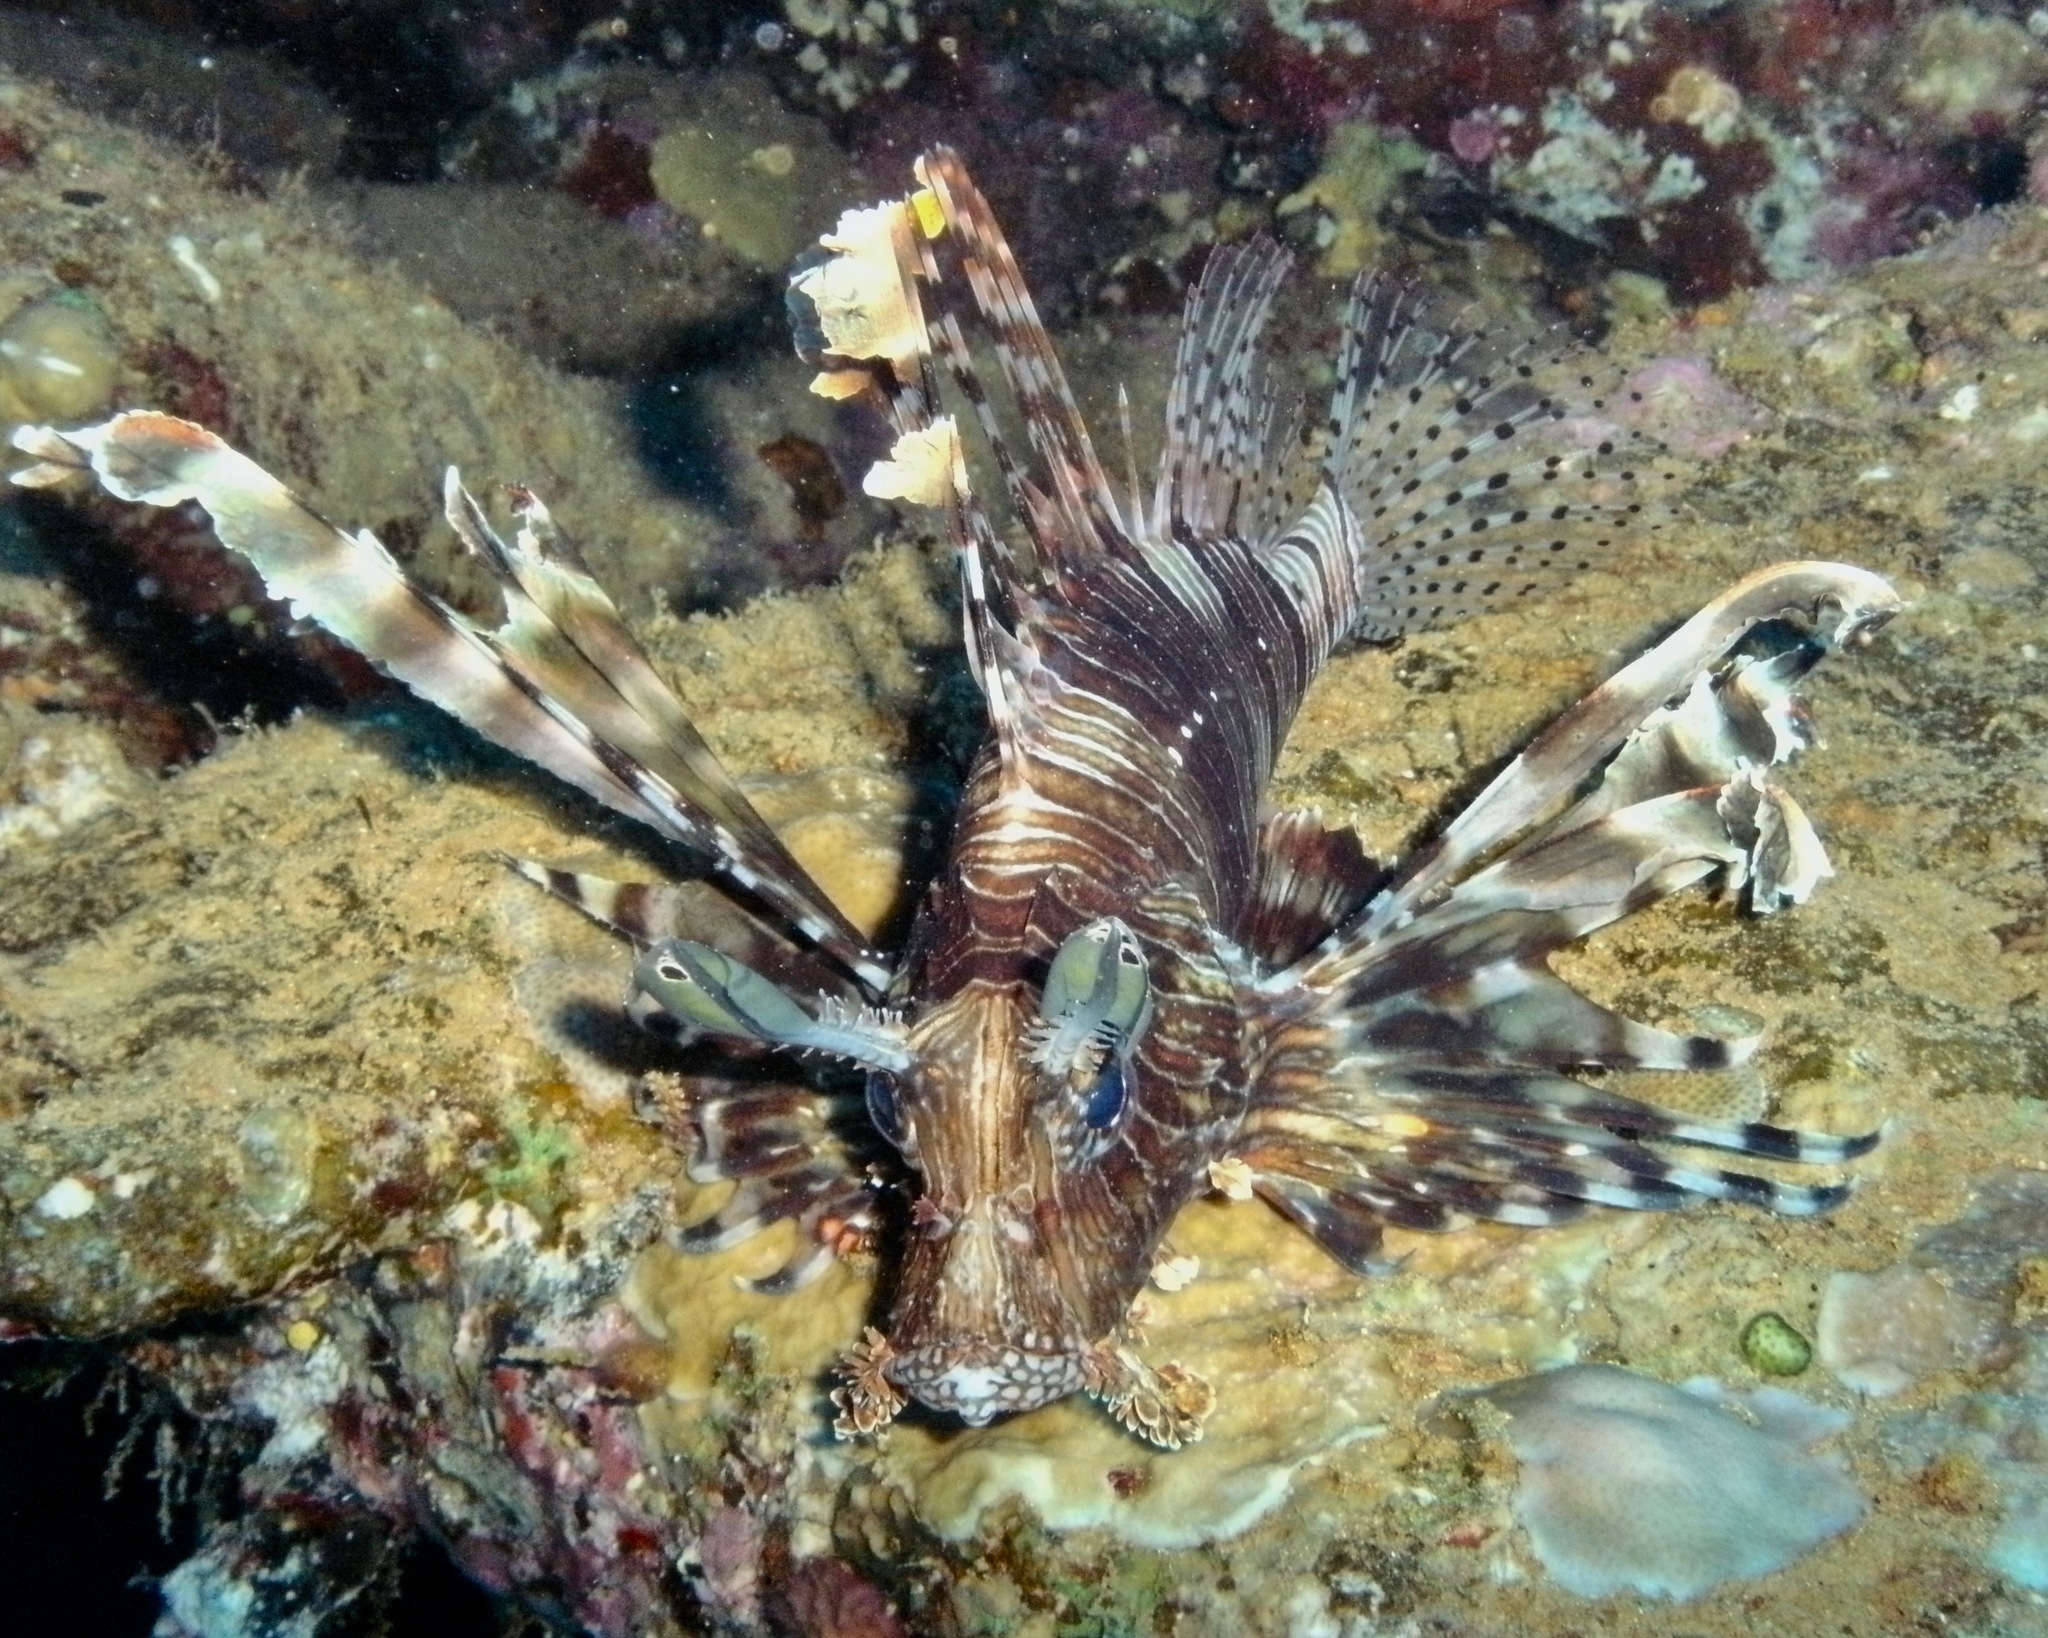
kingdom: Animalia
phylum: Chordata
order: Scorpaeniformes
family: Scorpaenidae
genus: Pterois
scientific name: Pterois miles
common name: Devil firefish
